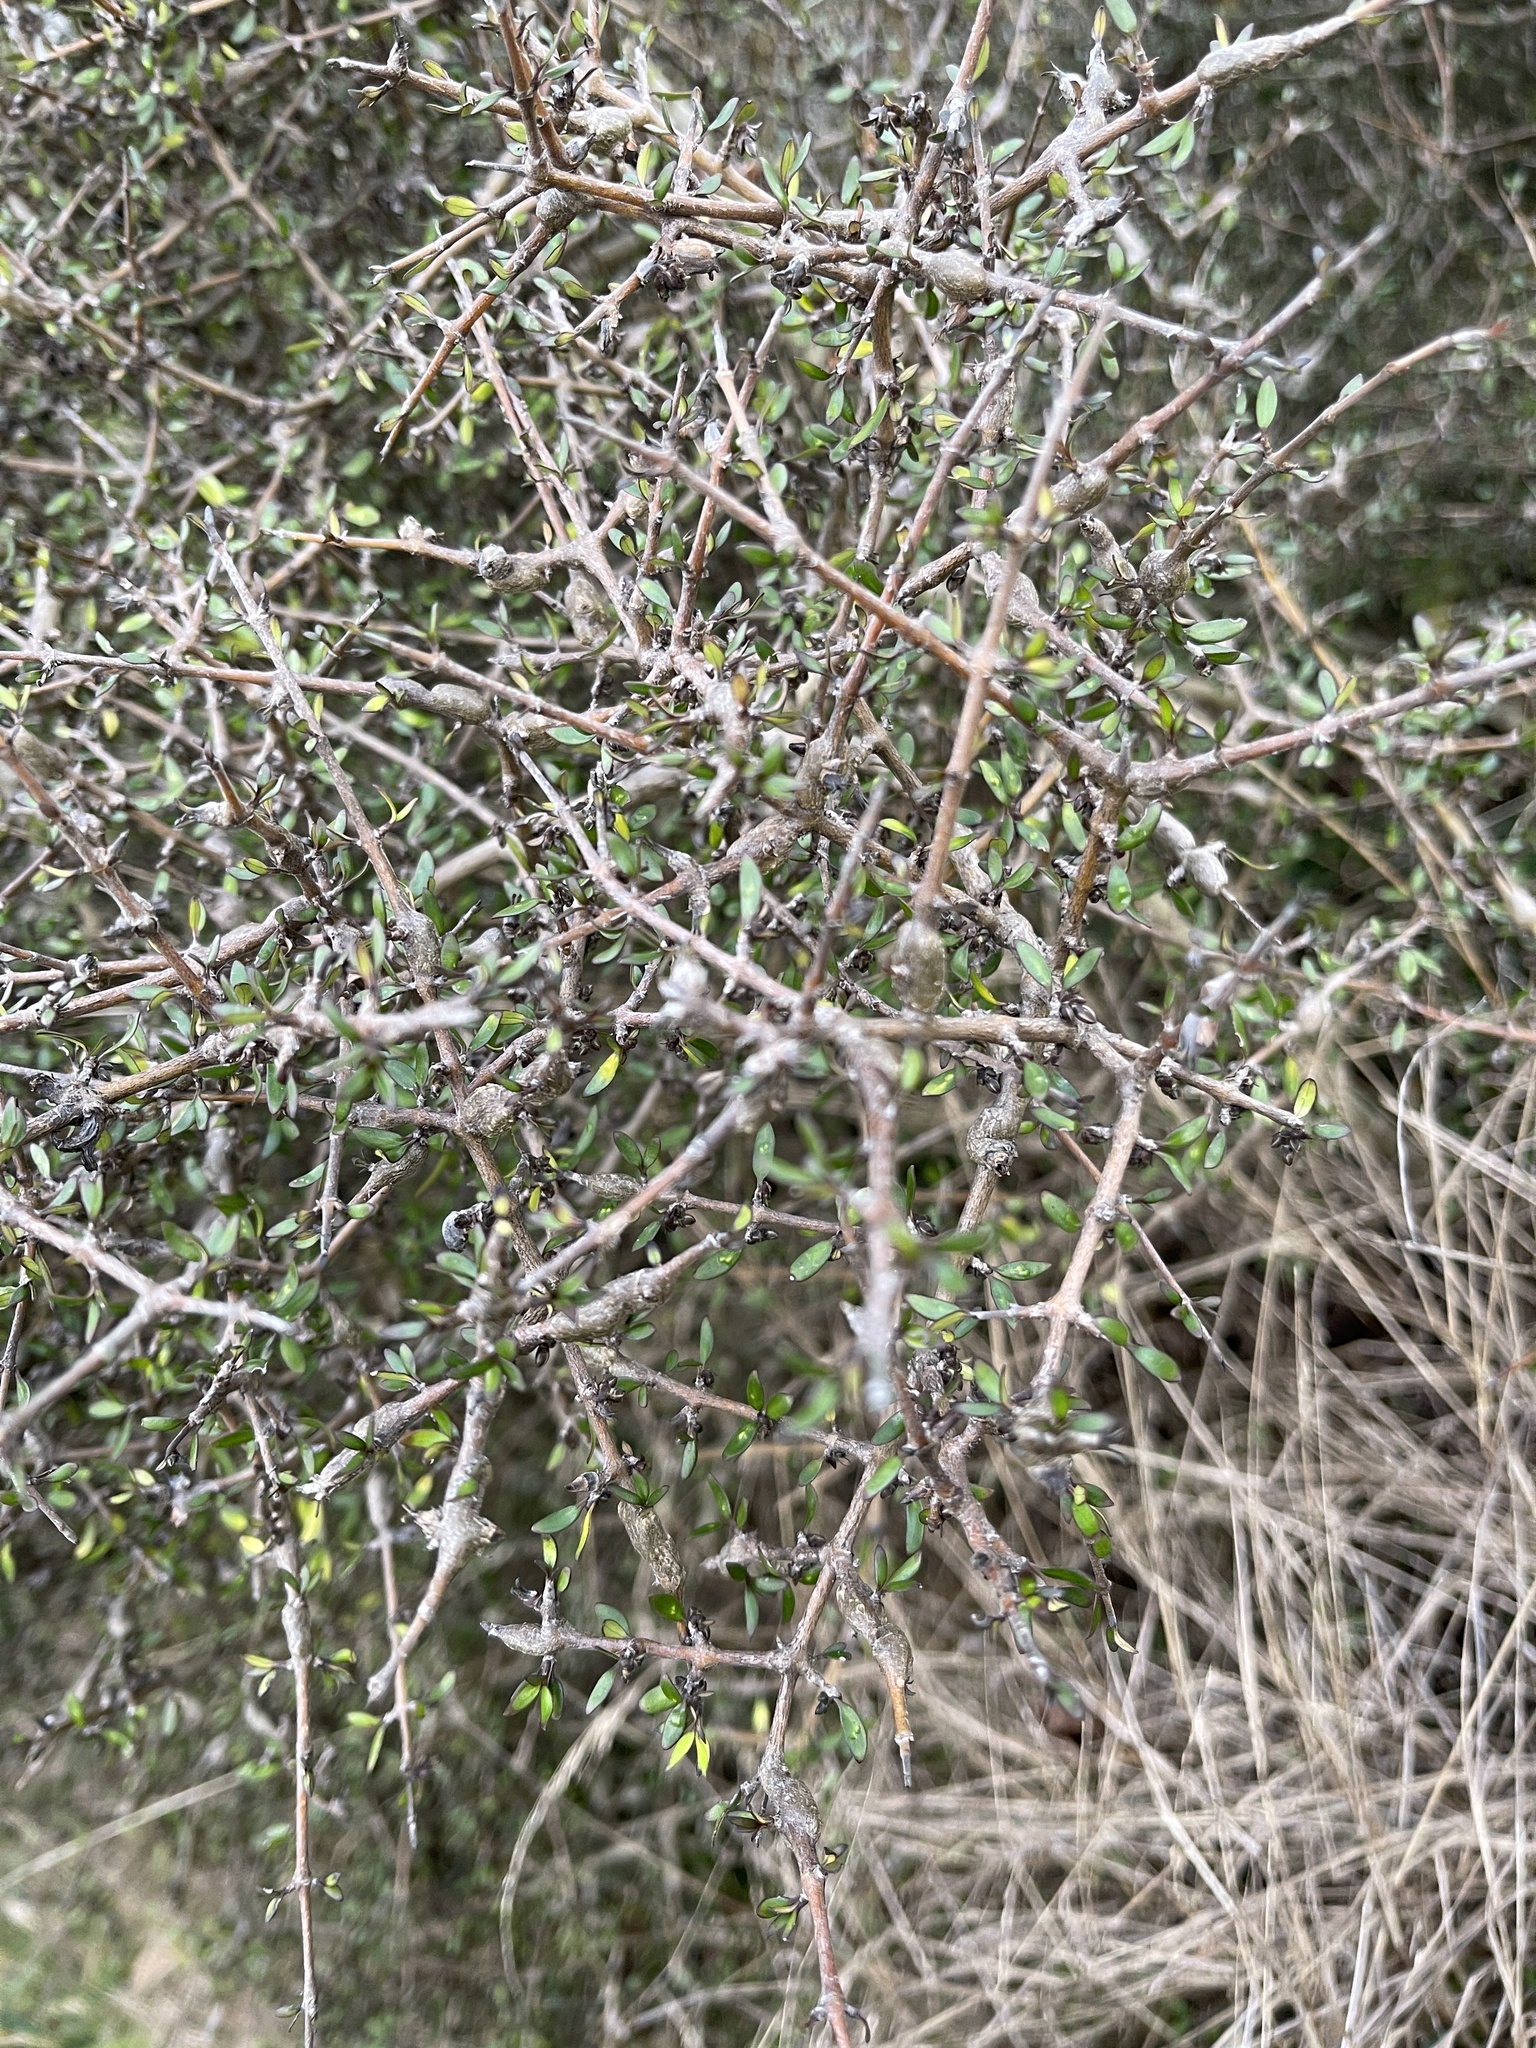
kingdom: Plantae
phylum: Tracheophyta
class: Magnoliopsida
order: Gentianales
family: Rubiaceae
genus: Coprosma
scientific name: Coprosma propinqua
